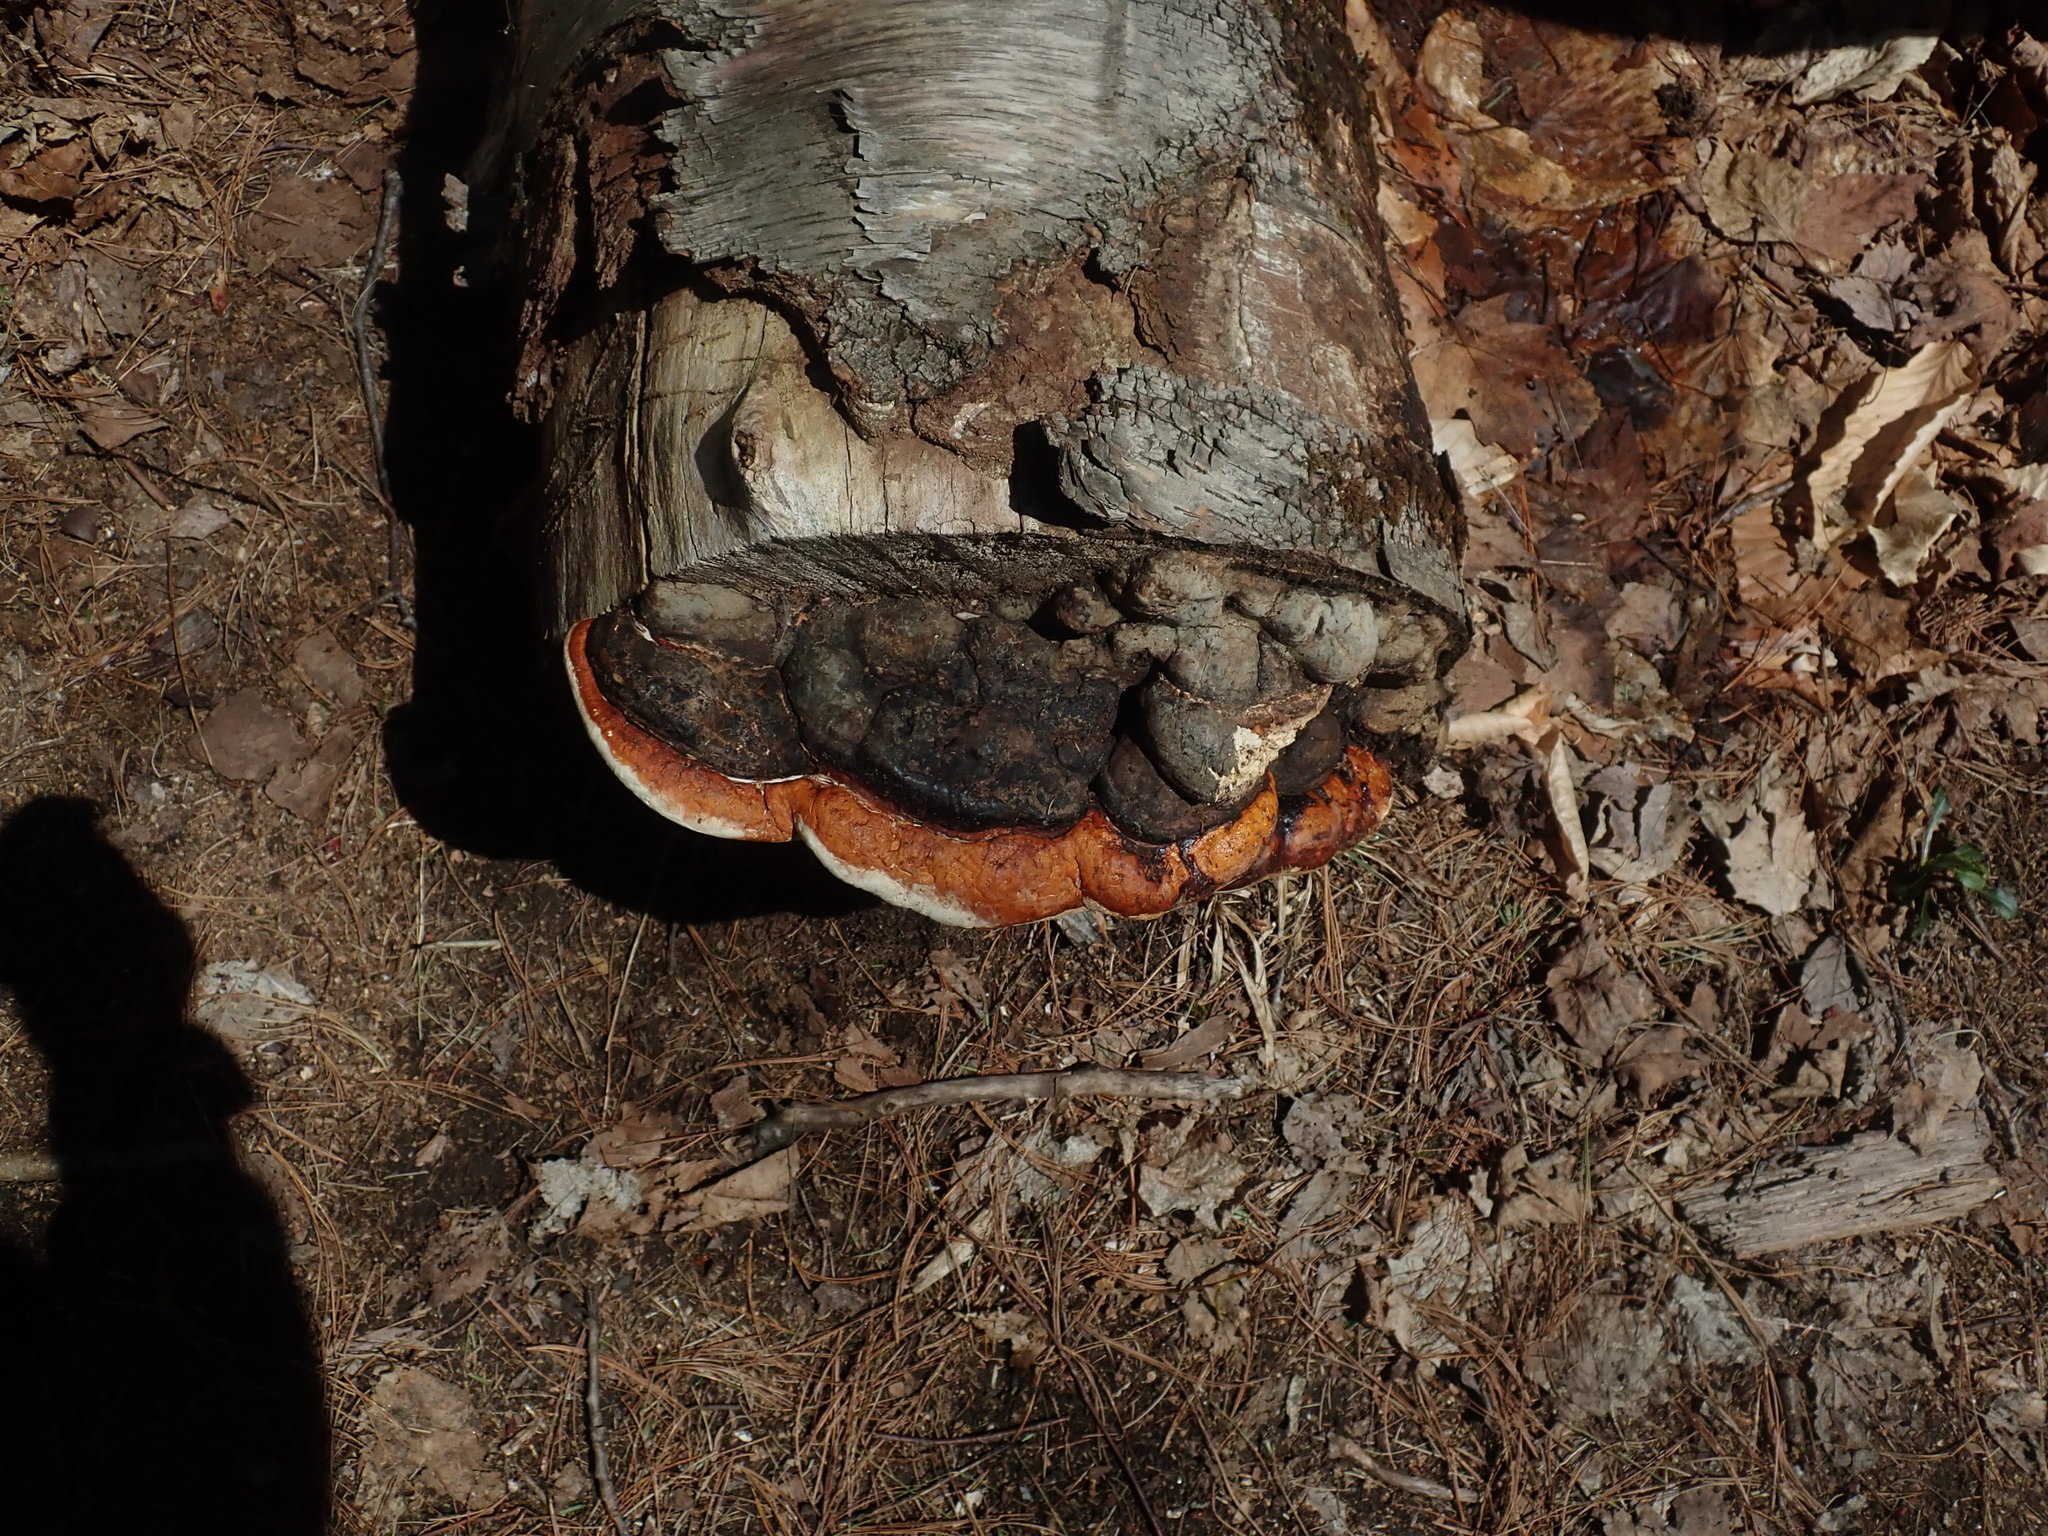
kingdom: Fungi
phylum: Basidiomycota
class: Agaricomycetes
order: Polyporales
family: Fomitopsidaceae
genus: Fomitopsis
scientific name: Fomitopsis mounceae
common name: Northern red belt
